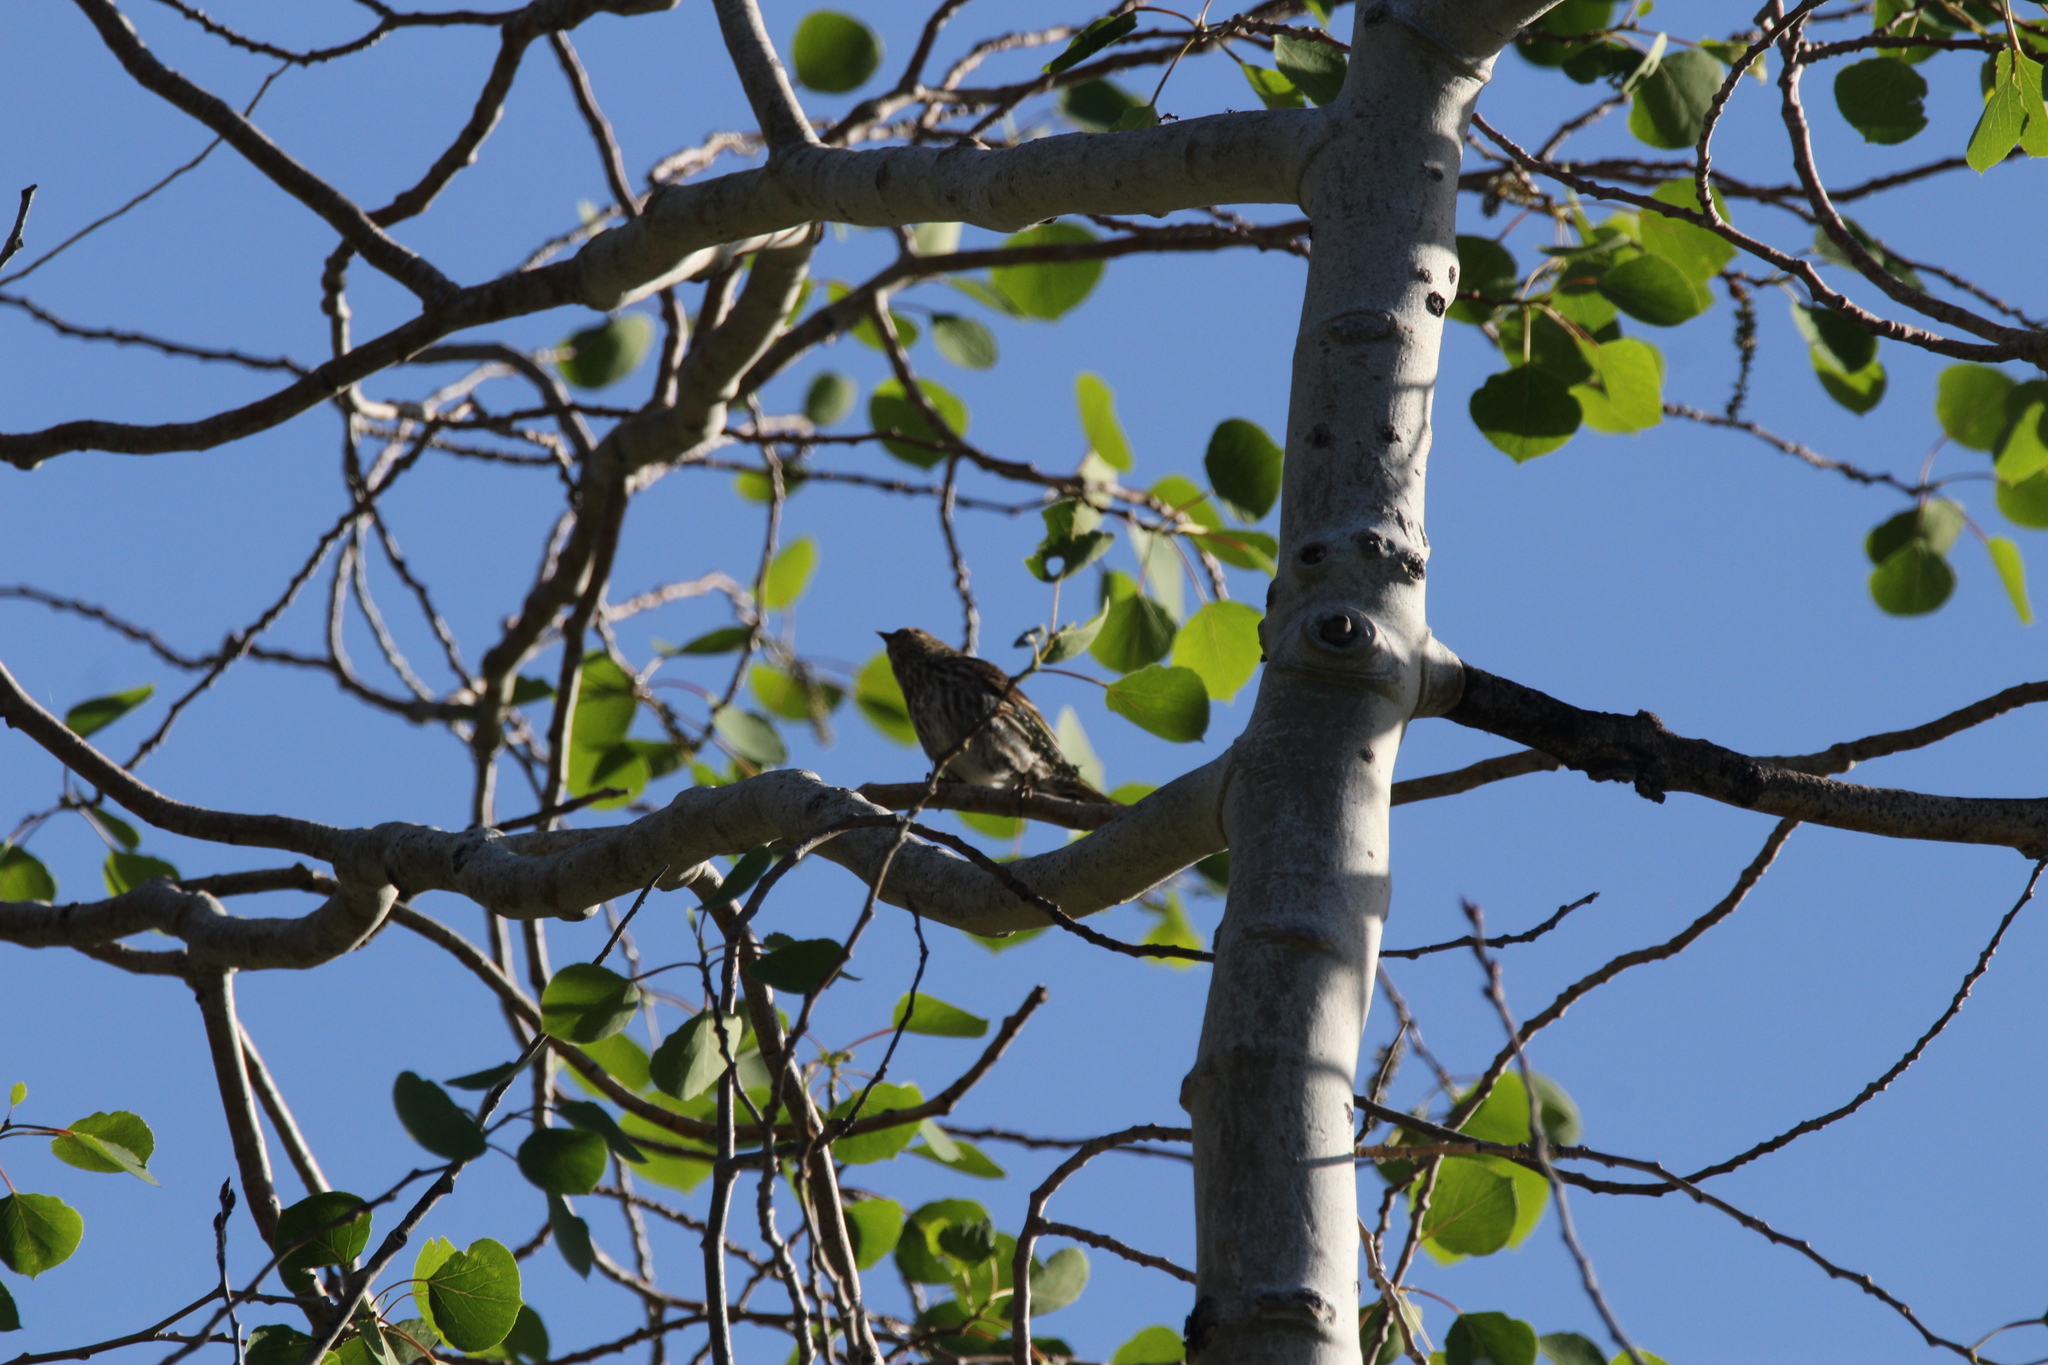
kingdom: Animalia
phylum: Chordata
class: Aves
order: Passeriformes
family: Fringillidae
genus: Spinus
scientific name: Spinus pinus
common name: Pine siskin
